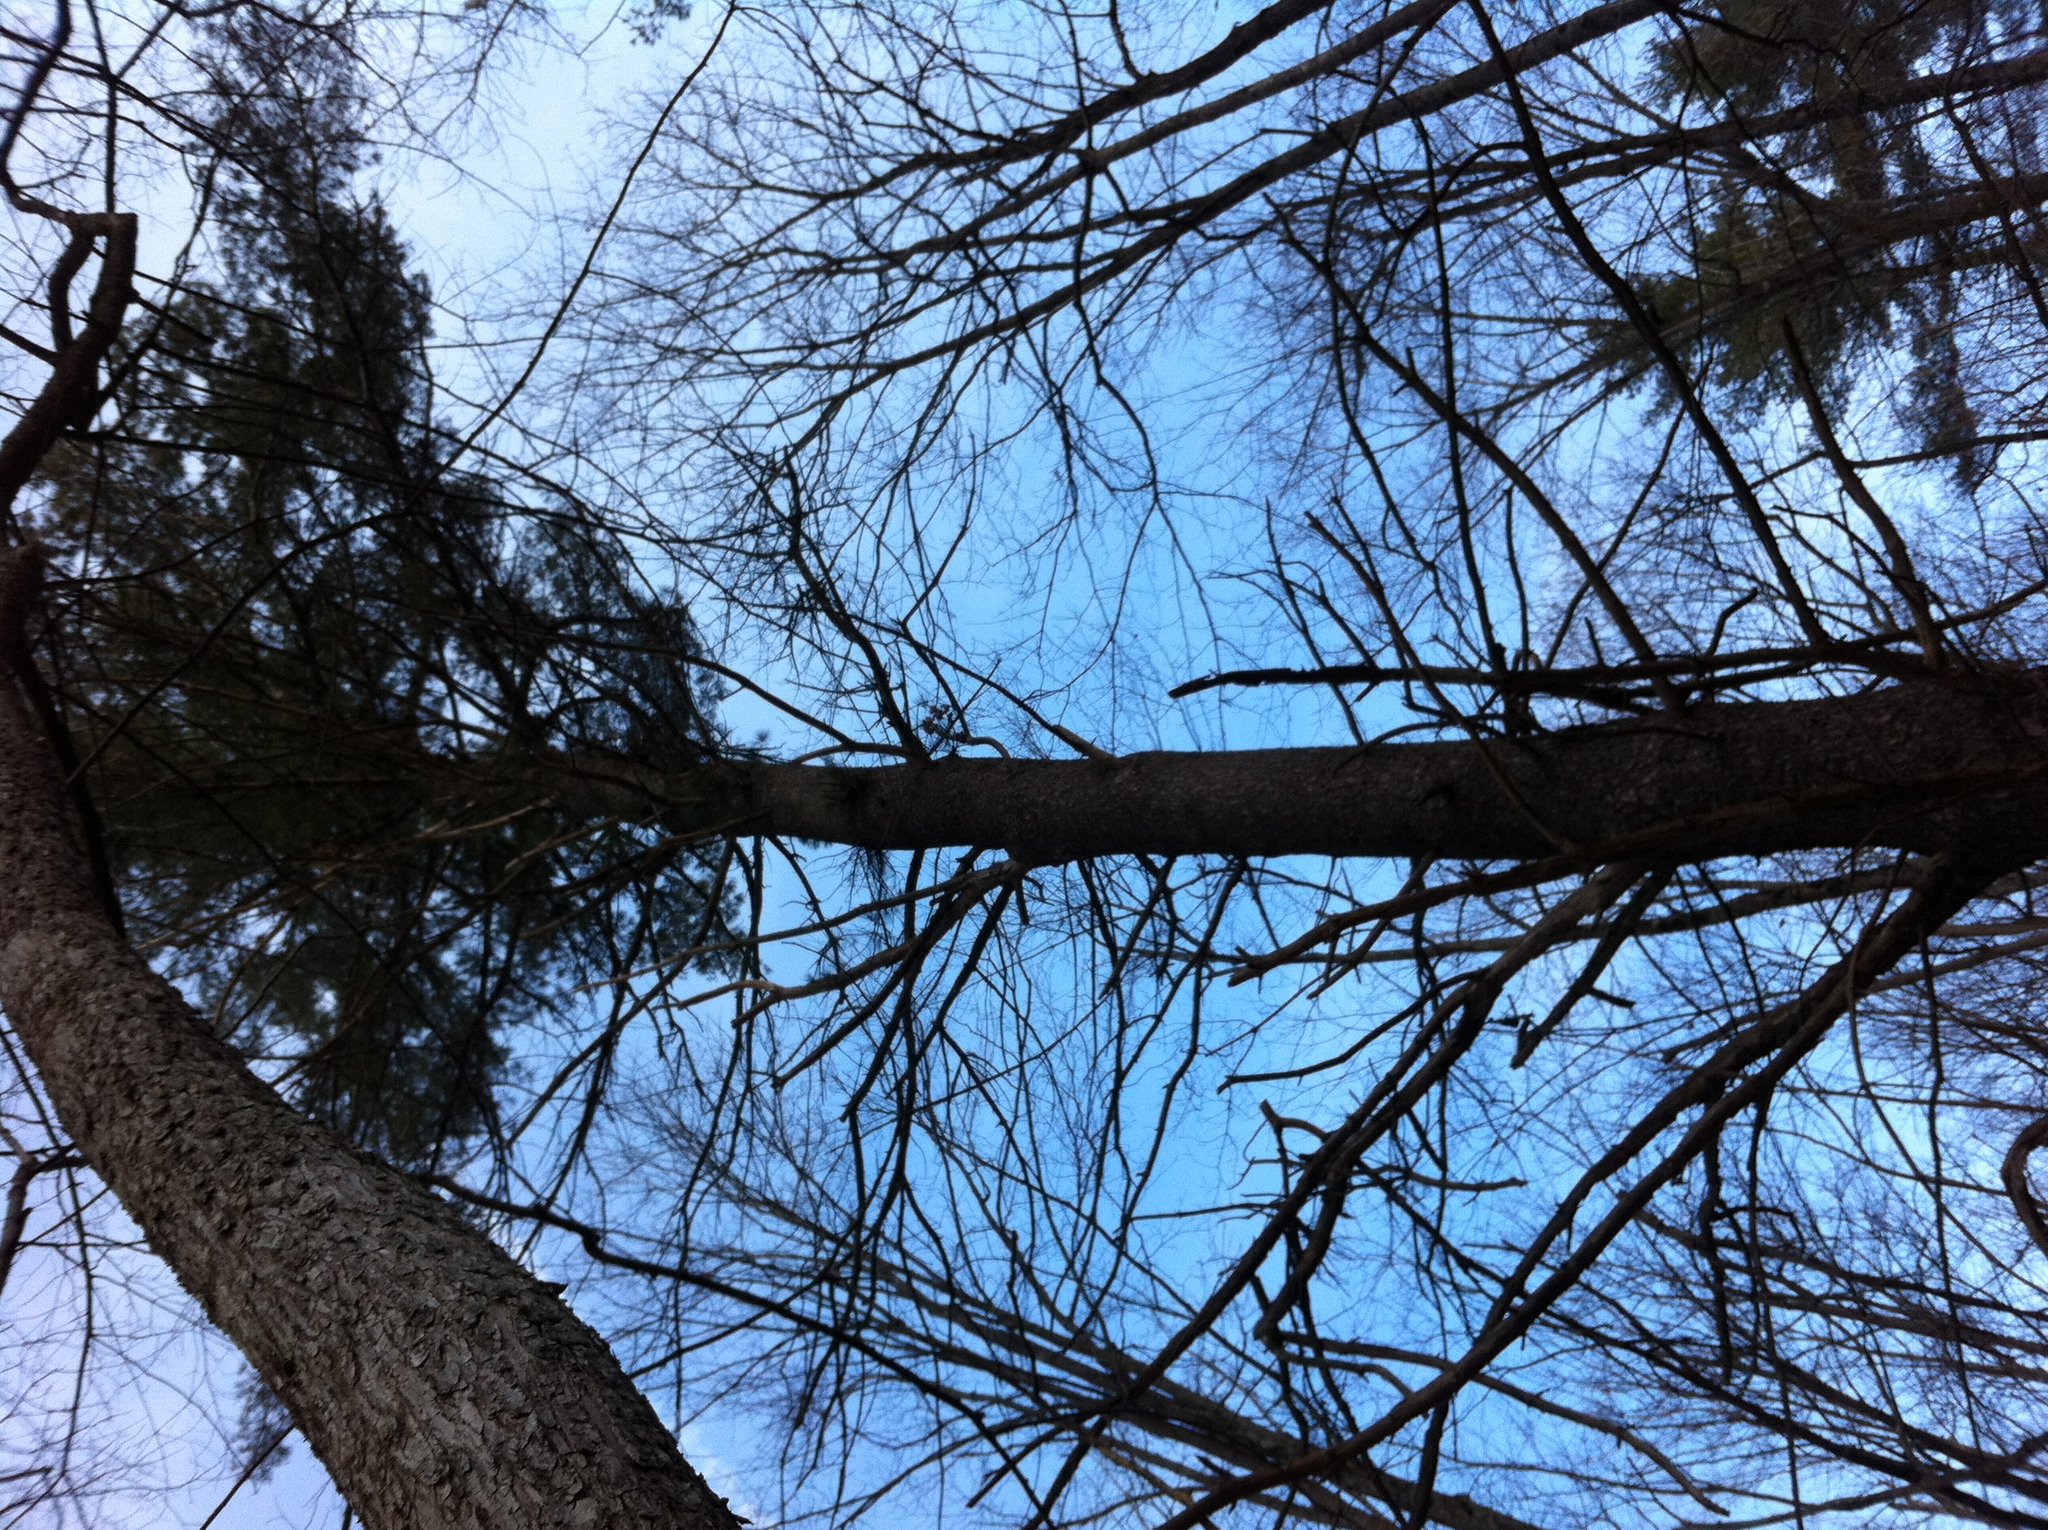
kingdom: Plantae
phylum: Tracheophyta
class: Pinopsida
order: Pinales
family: Pinaceae
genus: Pinus
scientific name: Pinus strobus
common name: Weymouth pine
